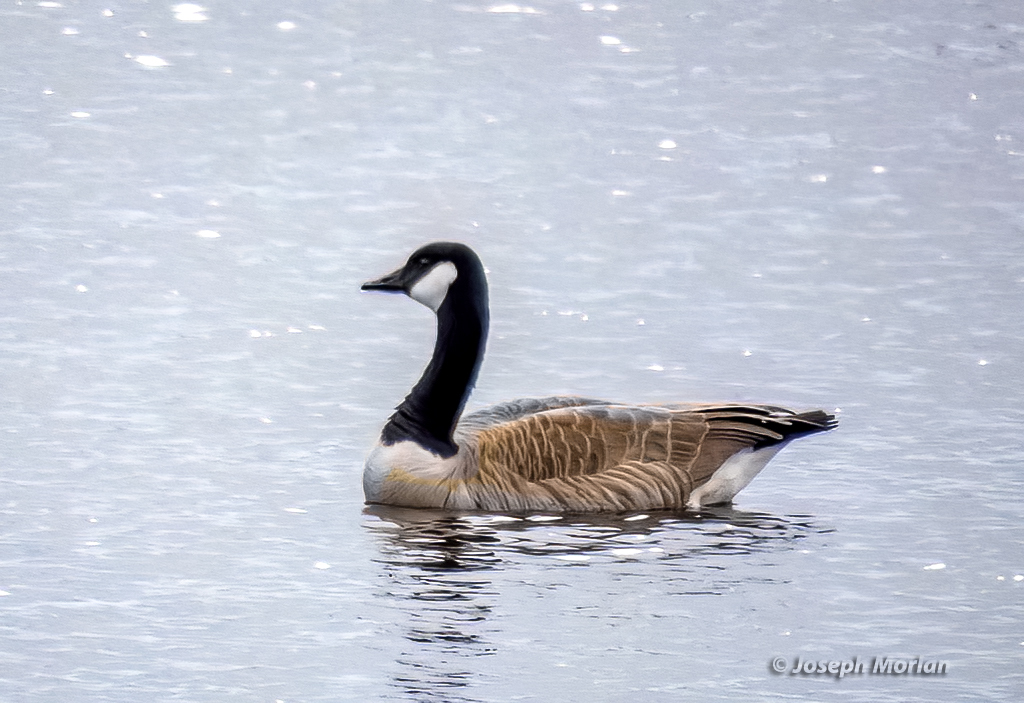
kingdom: Animalia
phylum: Chordata
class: Aves
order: Anseriformes
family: Anatidae
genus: Branta
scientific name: Branta canadensis
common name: Canada goose
